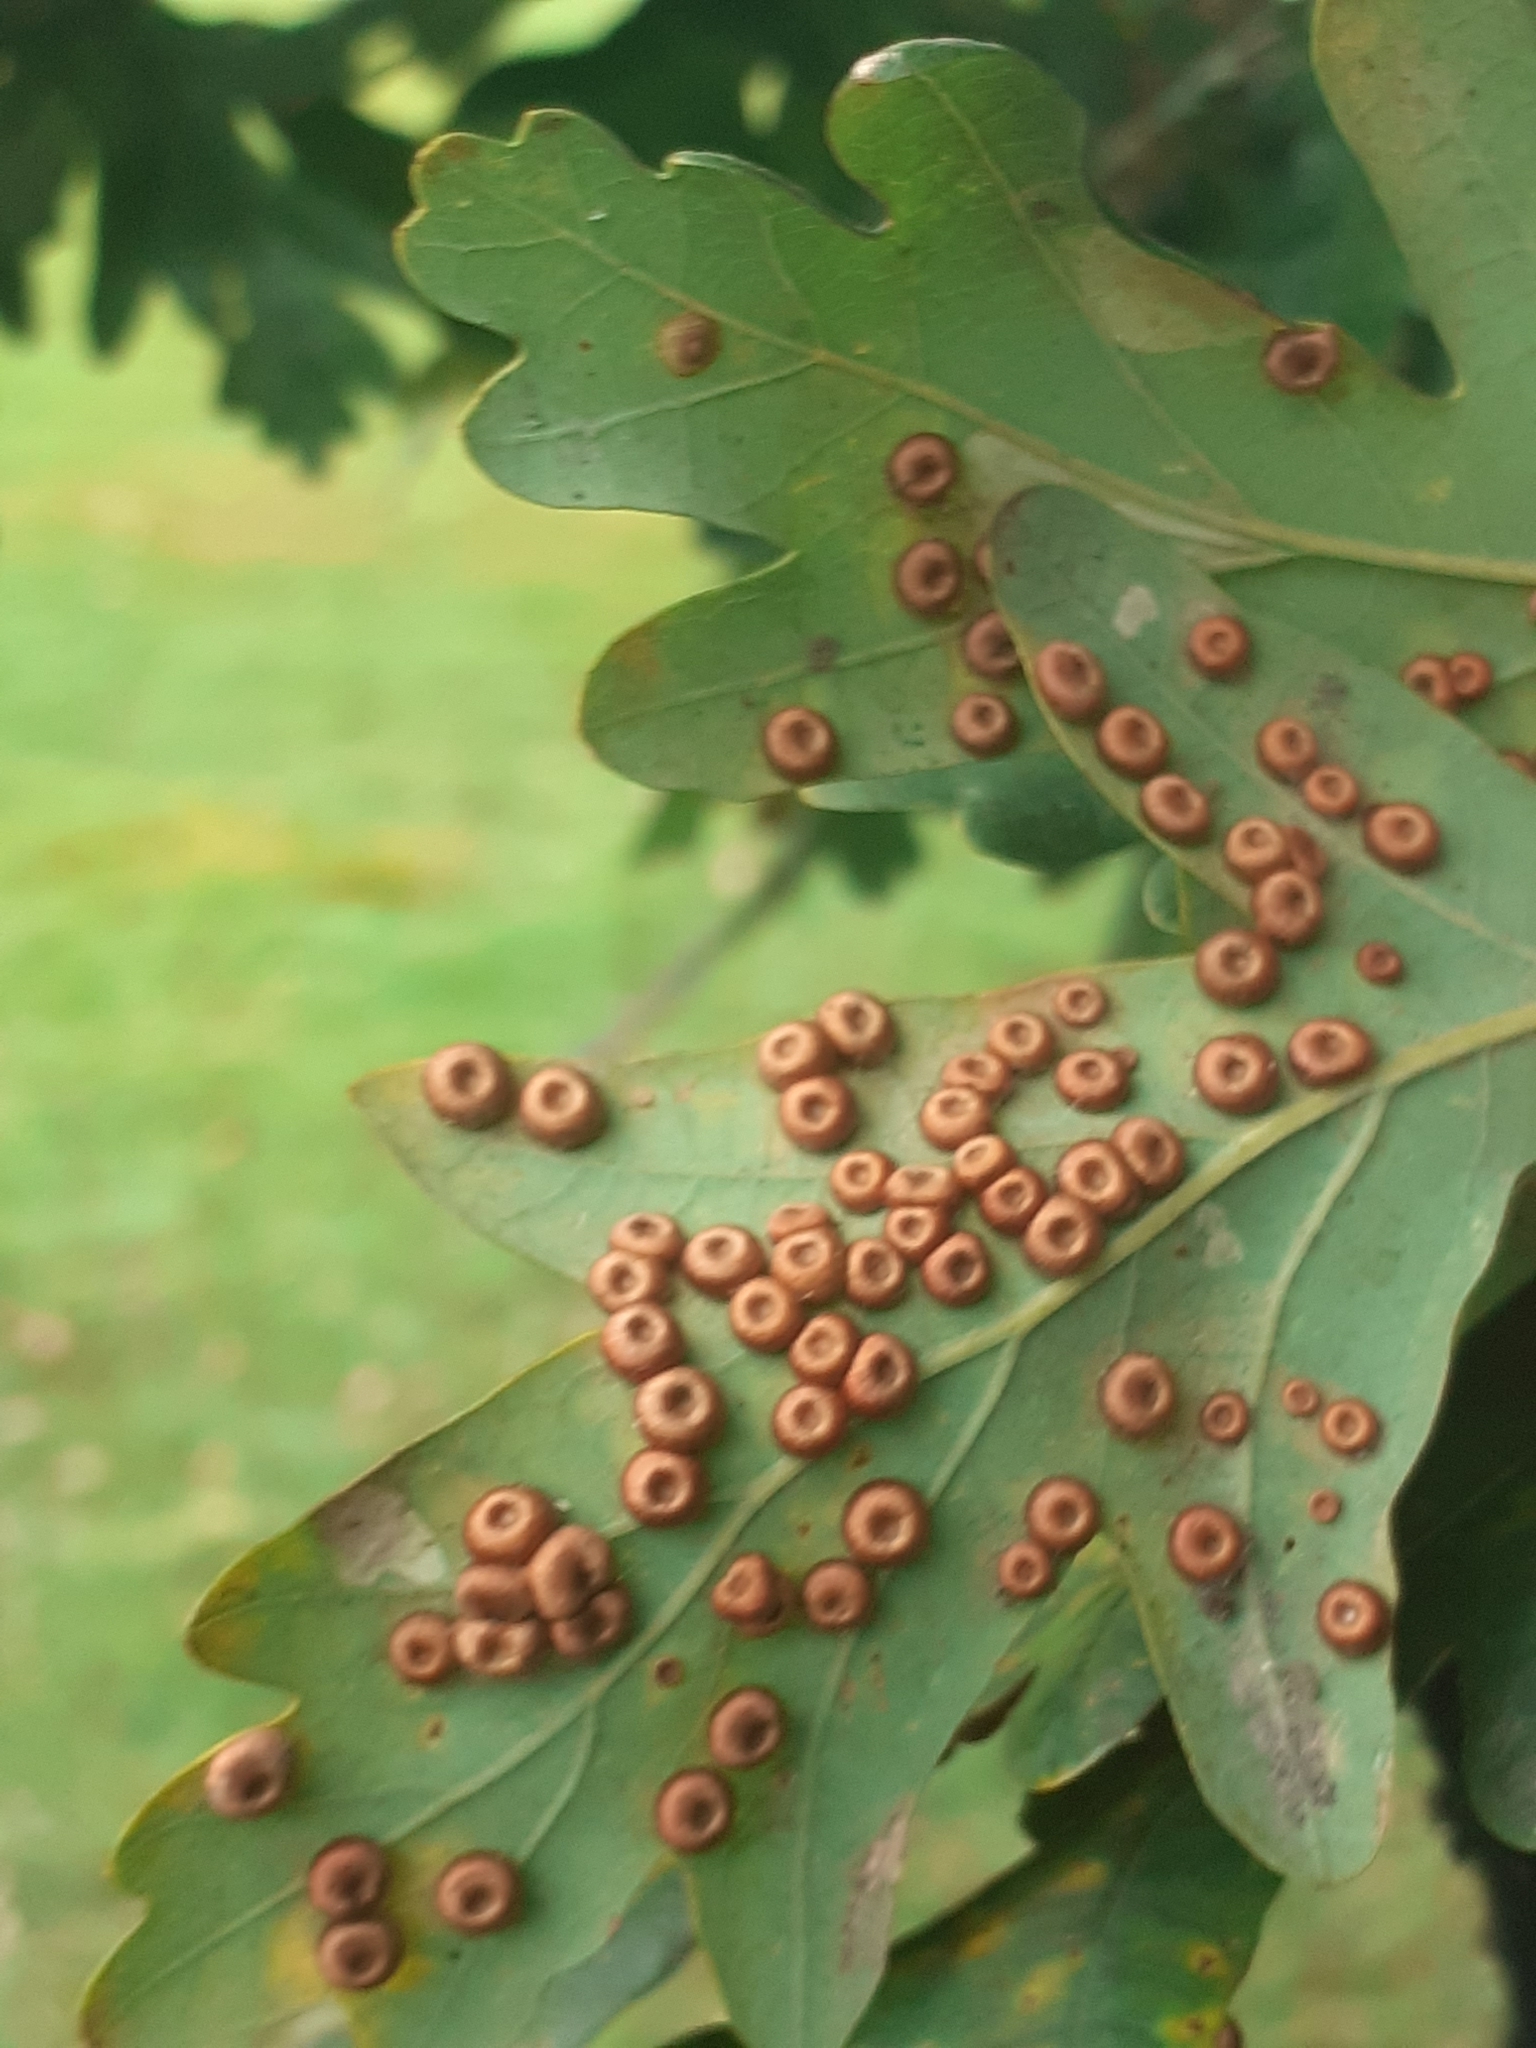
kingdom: Animalia
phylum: Arthropoda
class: Insecta
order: Hymenoptera
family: Cynipidae
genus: Neuroterus
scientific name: Neuroterus numismalis
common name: Silk-button spangle gall
